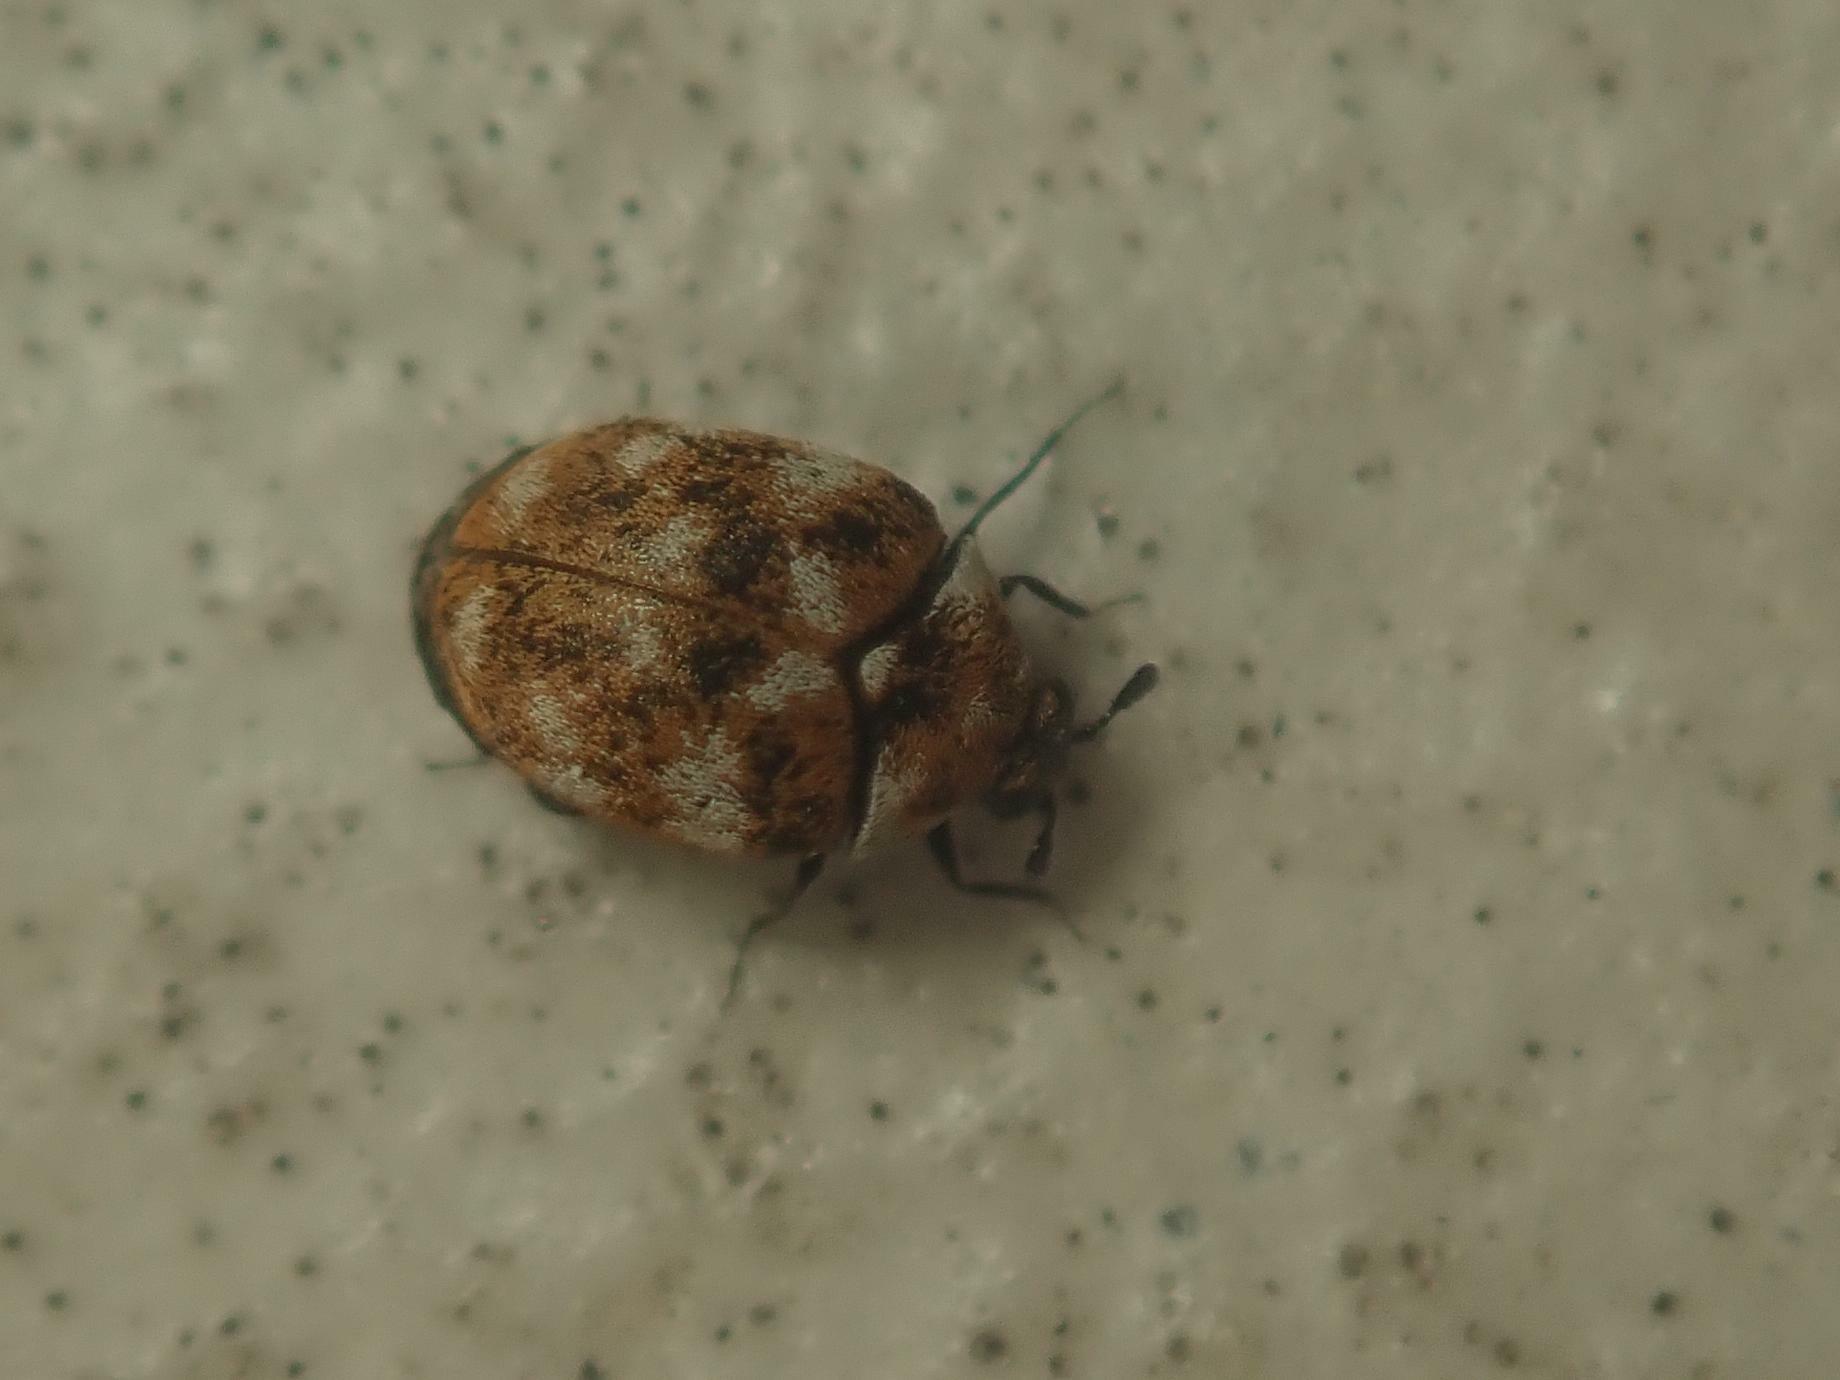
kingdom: Animalia
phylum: Arthropoda
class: Insecta
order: Coleoptera
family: Dermestidae
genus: Anthrenus
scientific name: Anthrenus verbasci
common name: Varied carpet beetle
